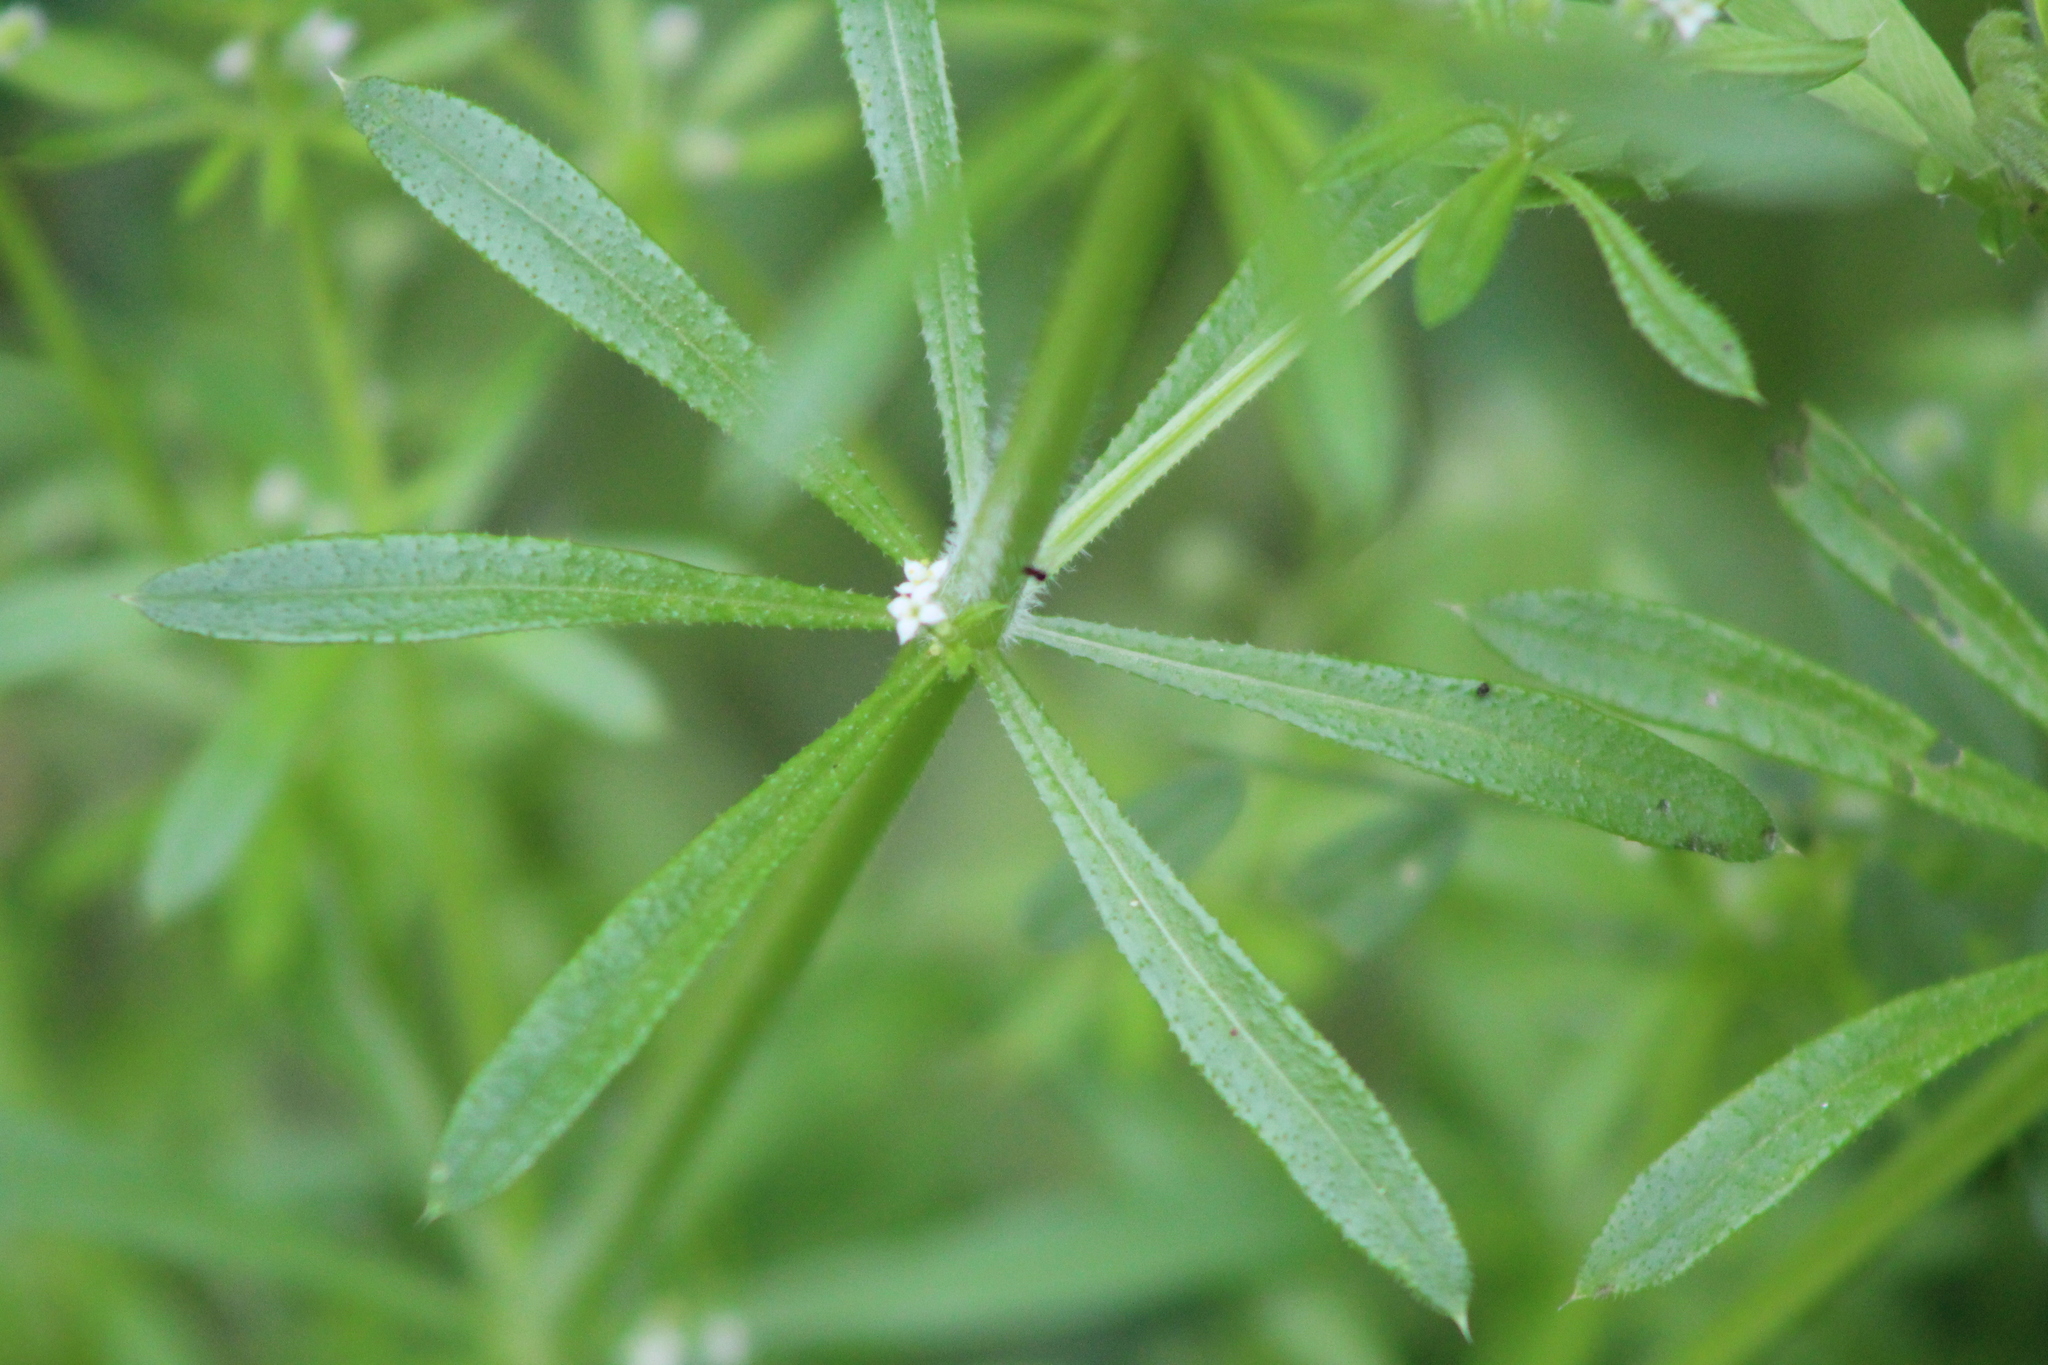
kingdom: Plantae
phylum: Tracheophyta
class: Magnoliopsida
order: Gentianales
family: Rubiaceae
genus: Galium
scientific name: Galium aparine
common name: Cleavers
